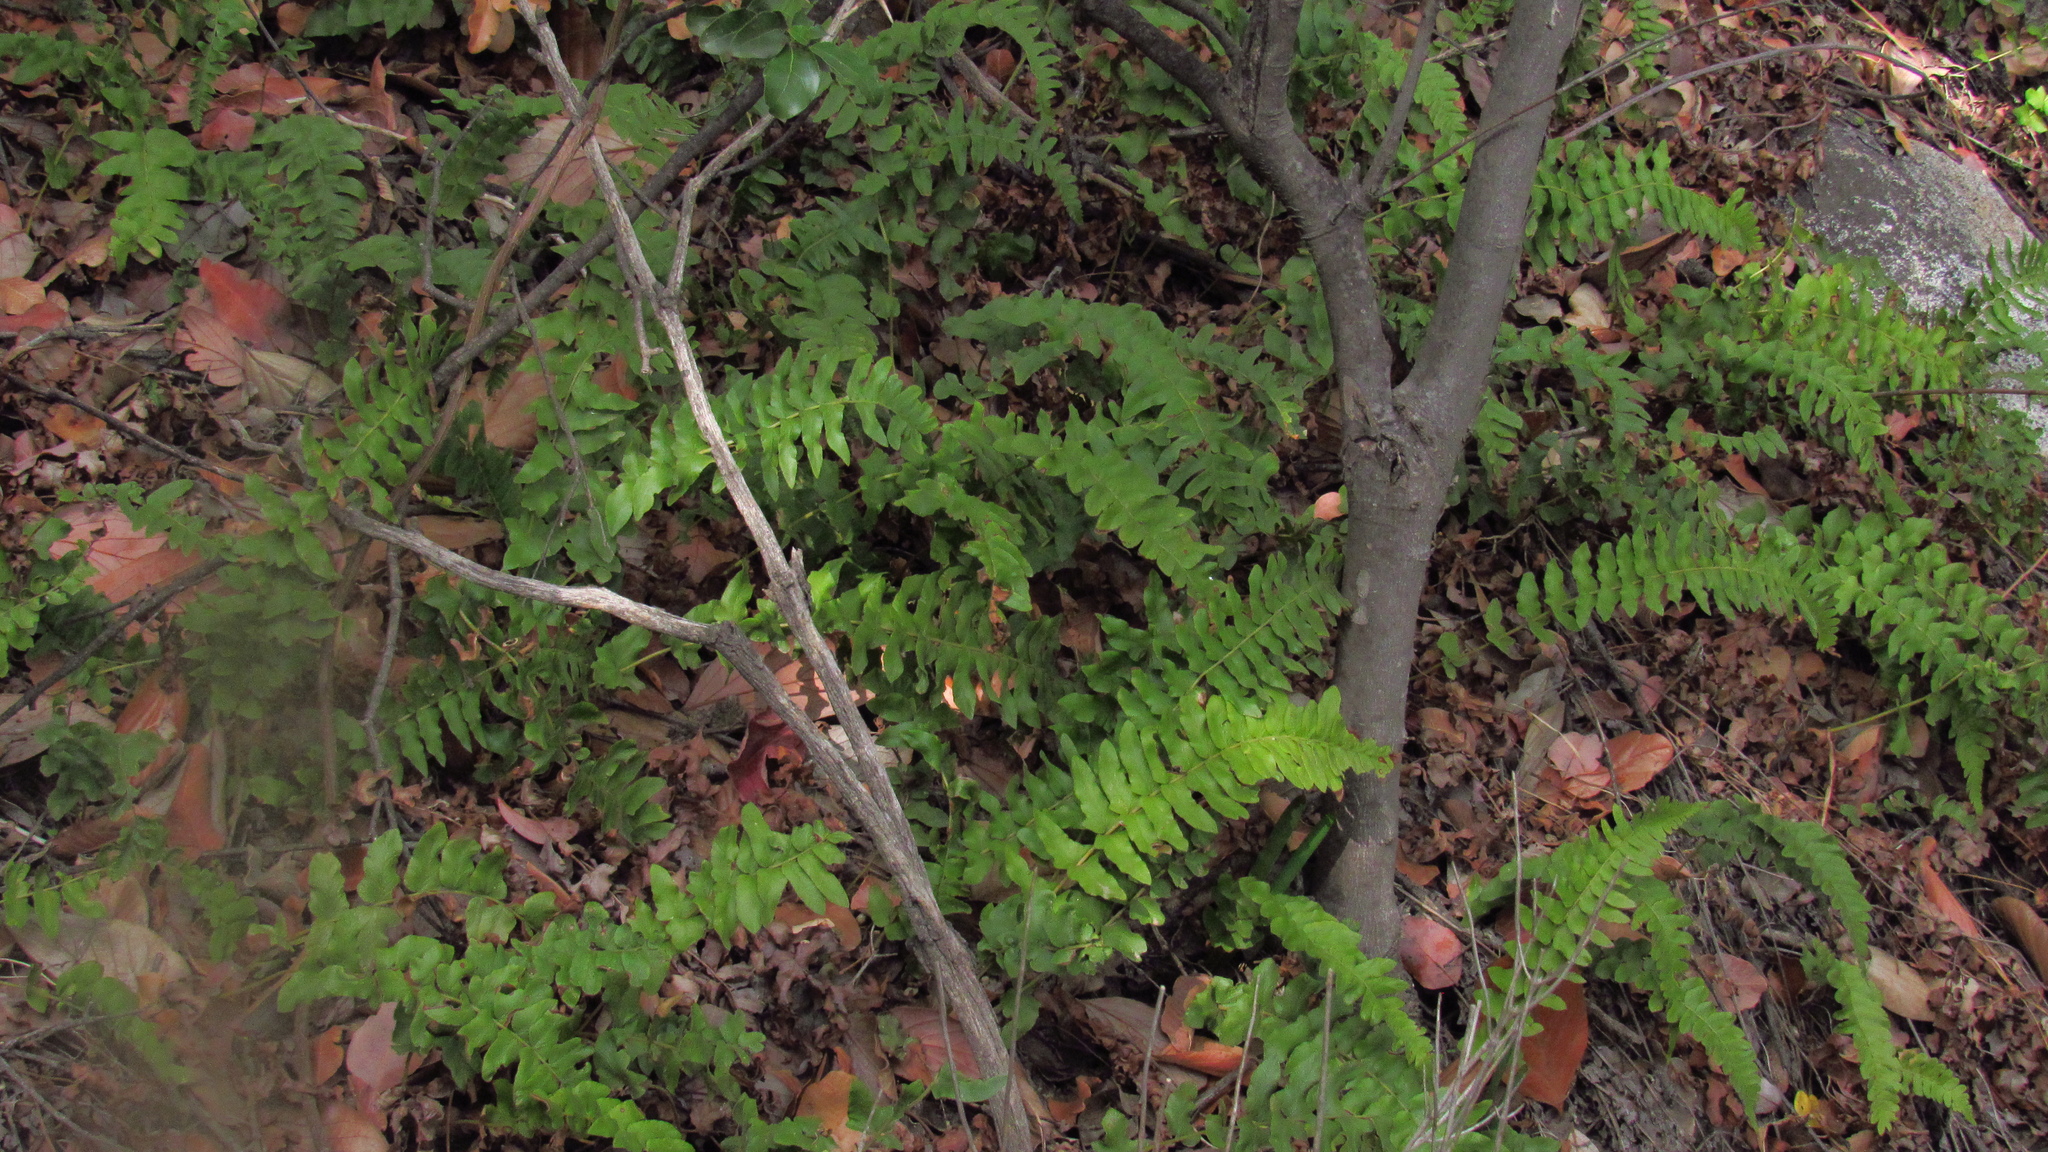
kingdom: Plantae
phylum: Tracheophyta
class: Polypodiopsida
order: Polypodiales
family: Blechnaceae
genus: Blechnum
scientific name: Blechnum hastatum
